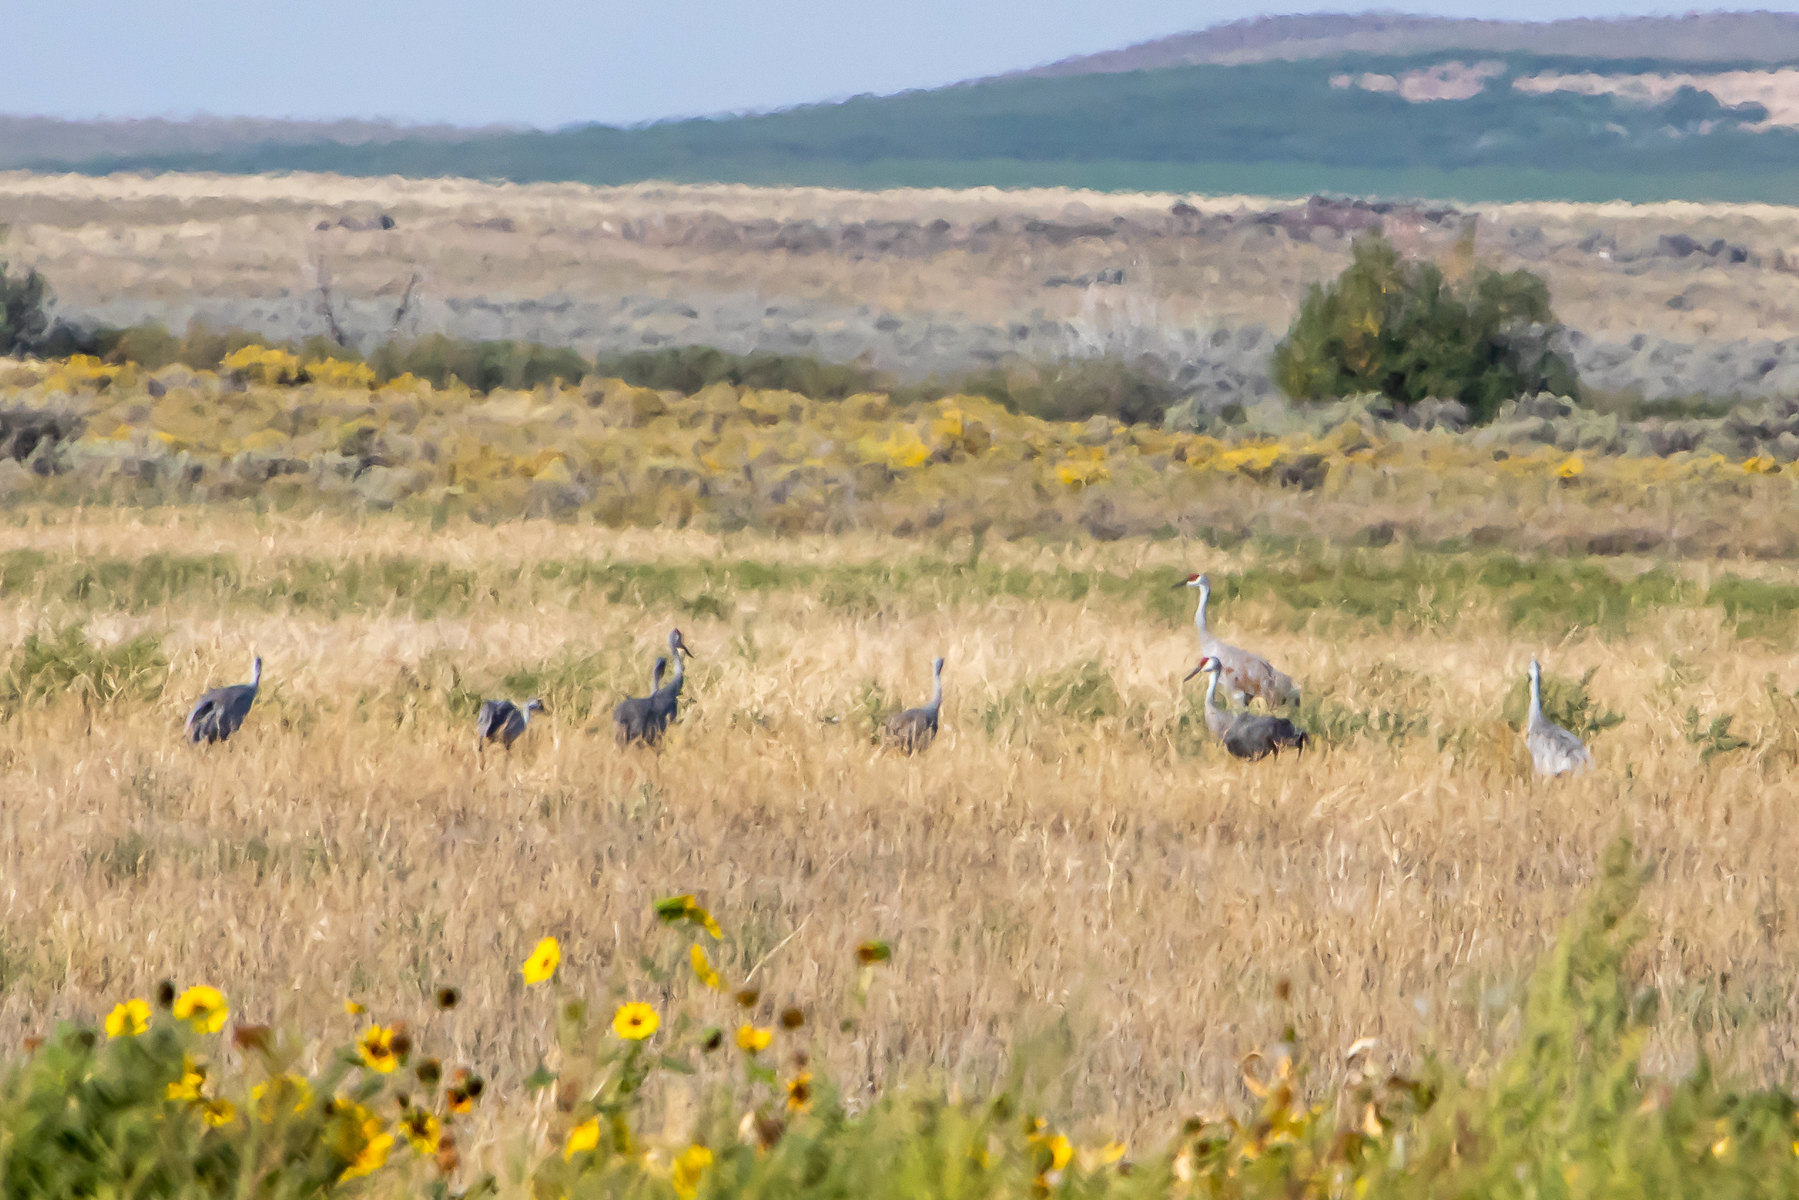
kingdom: Animalia
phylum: Chordata
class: Aves
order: Gruiformes
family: Gruidae
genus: Grus
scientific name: Grus canadensis
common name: Sandhill crane
